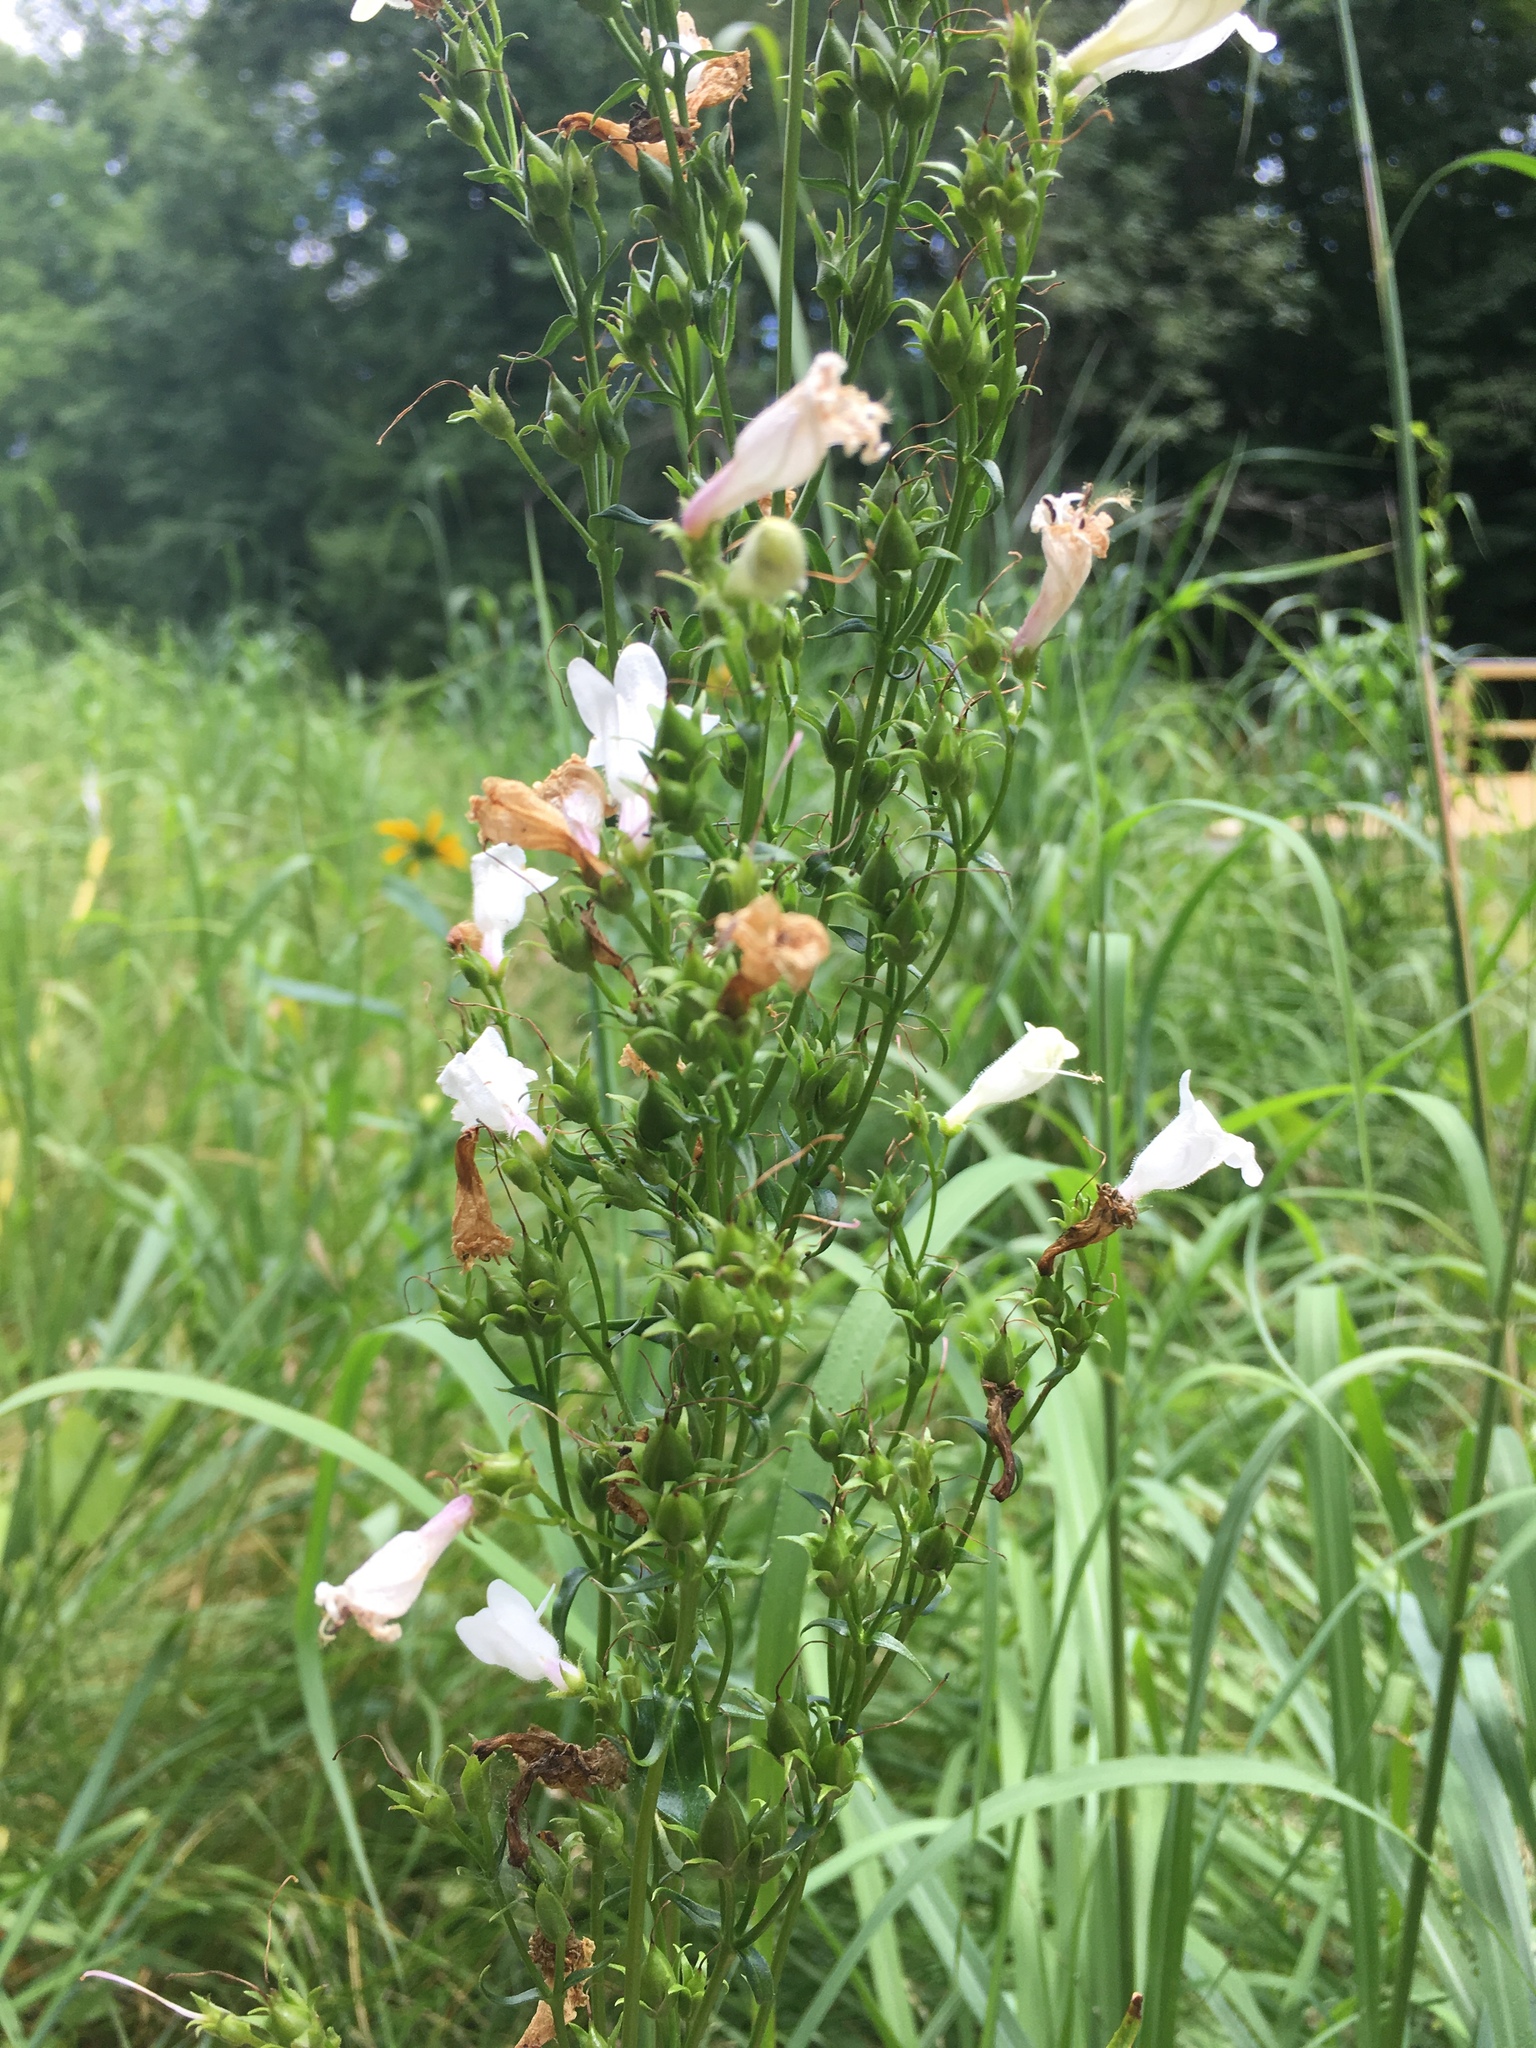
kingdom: Plantae
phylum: Tracheophyta
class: Magnoliopsida
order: Lamiales
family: Plantaginaceae
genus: Penstemon
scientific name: Penstemon digitalis
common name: Foxglove beardtongue
